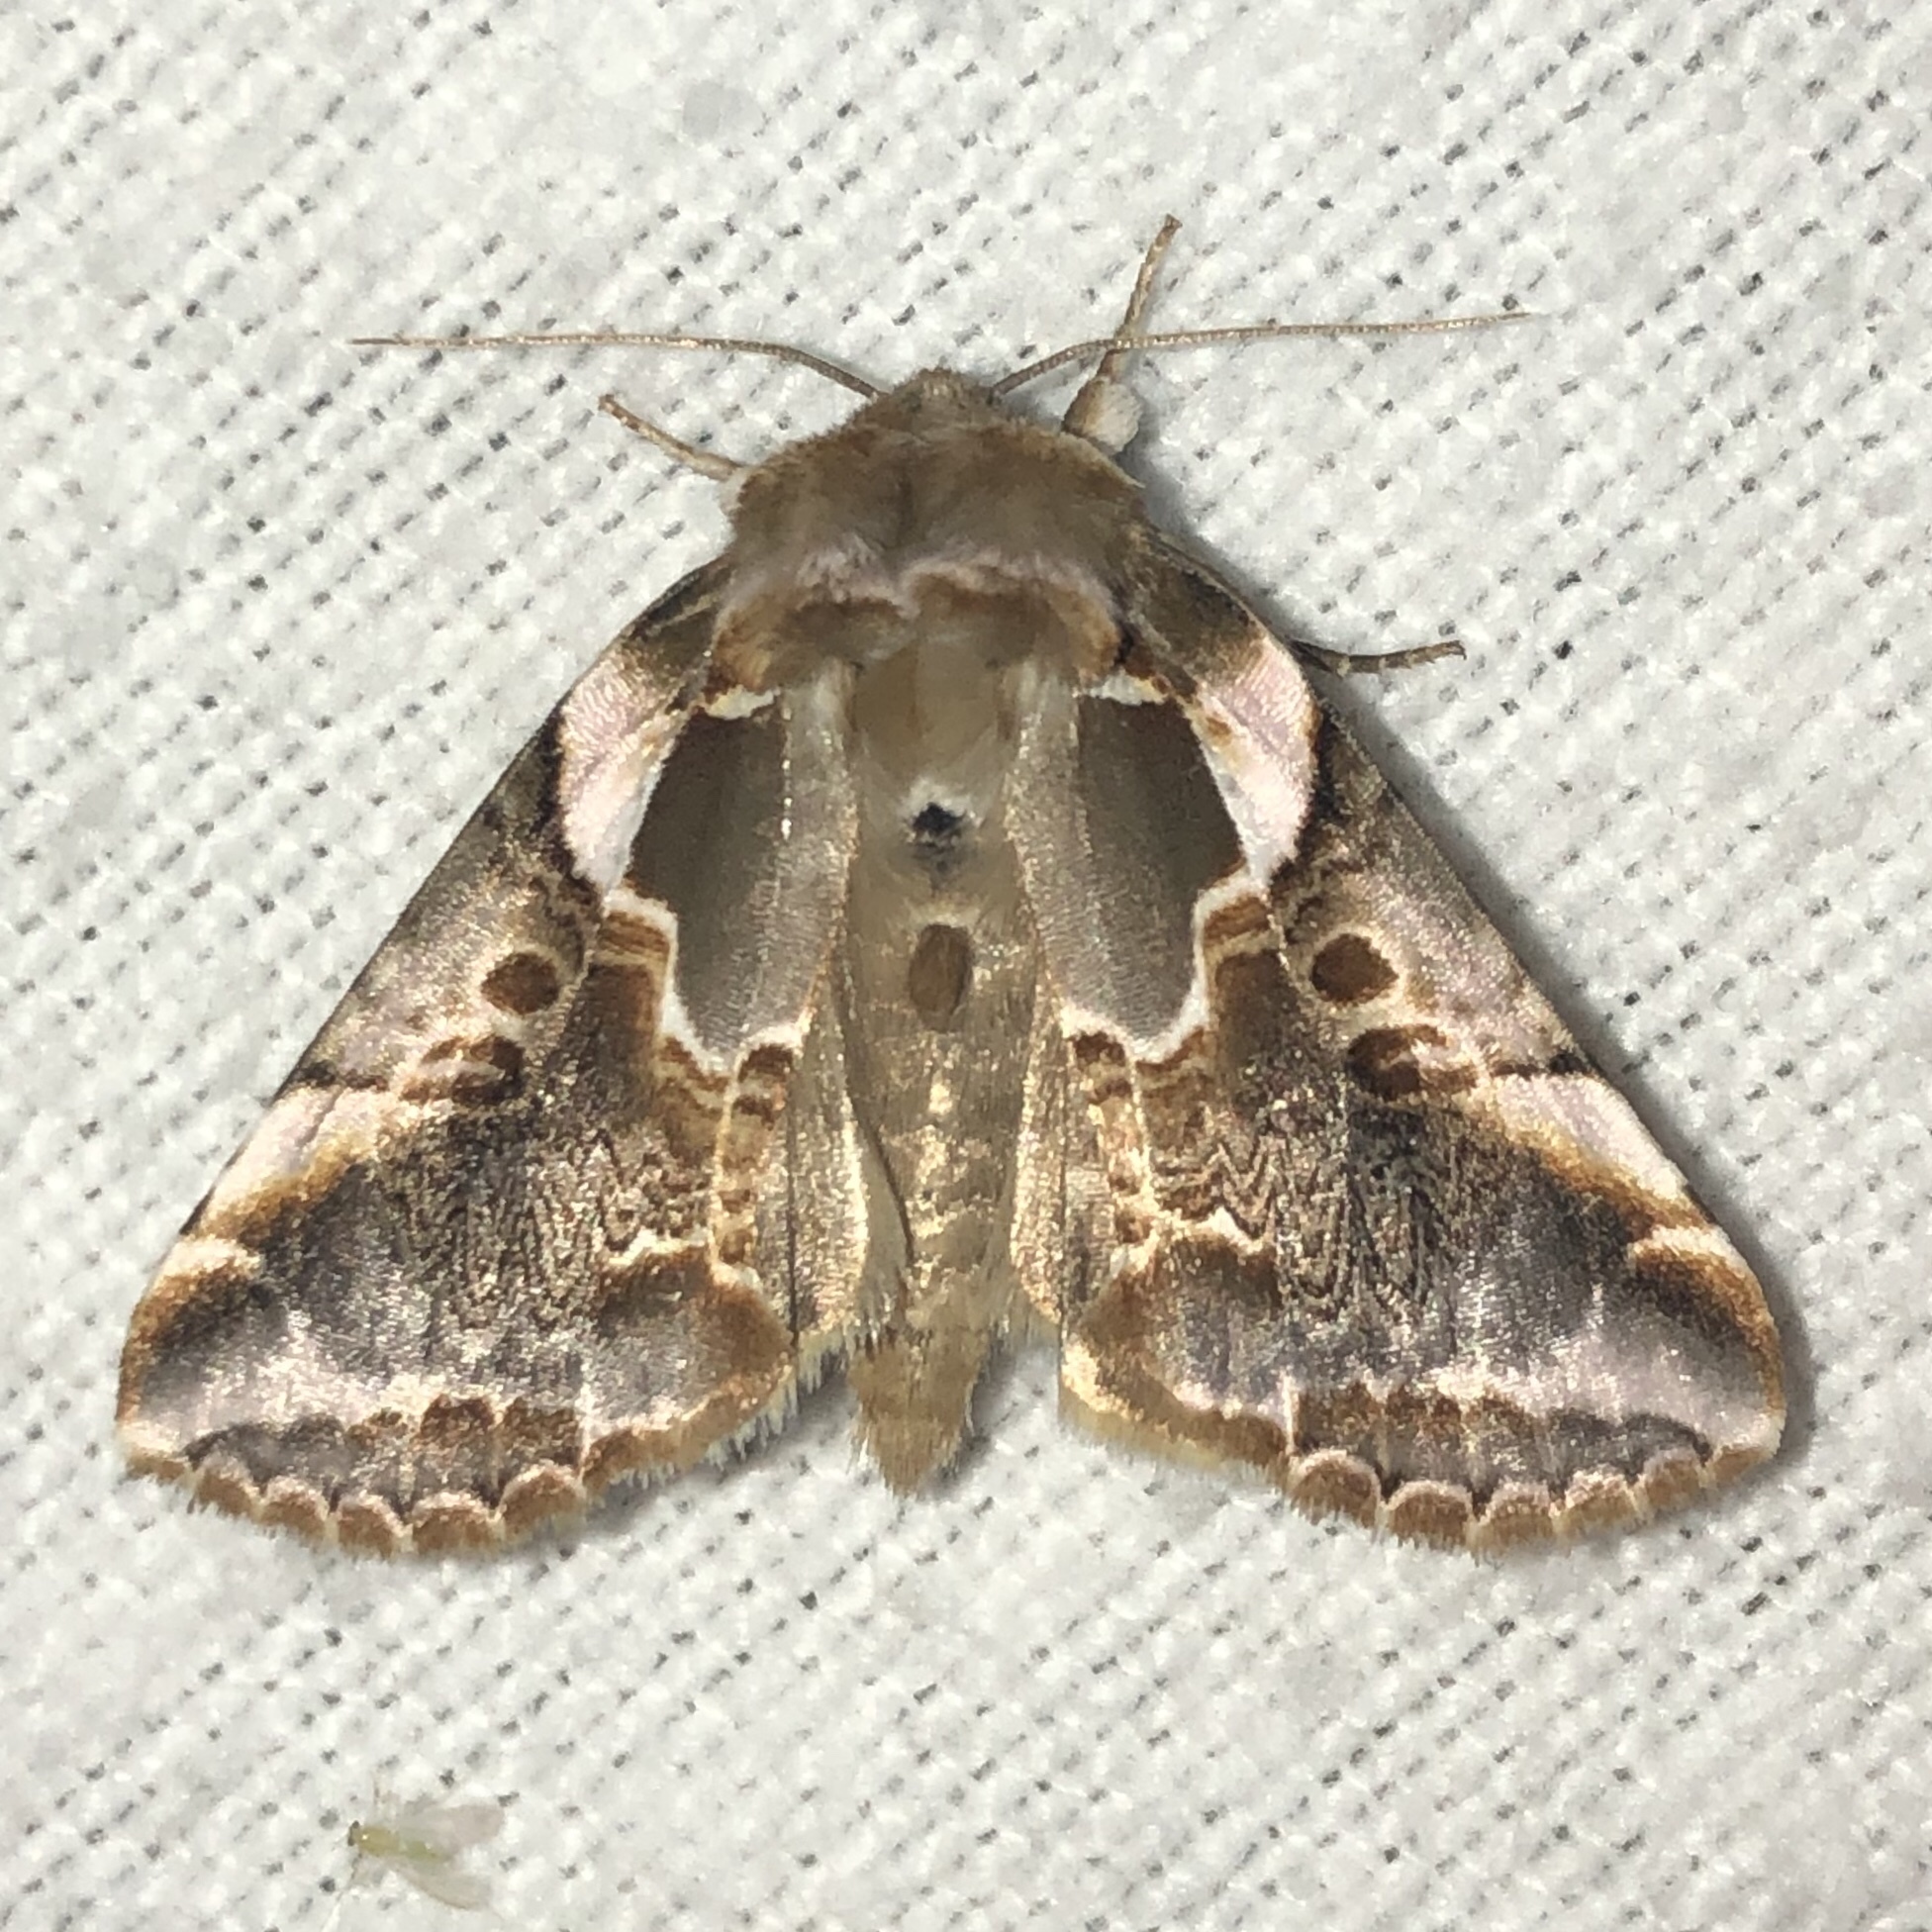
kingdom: Animalia
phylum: Arthropoda
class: Insecta
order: Lepidoptera
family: Drepanidae
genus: Habrosyne
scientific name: Habrosyne gloriosa
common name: Glorious habrosyne moth
